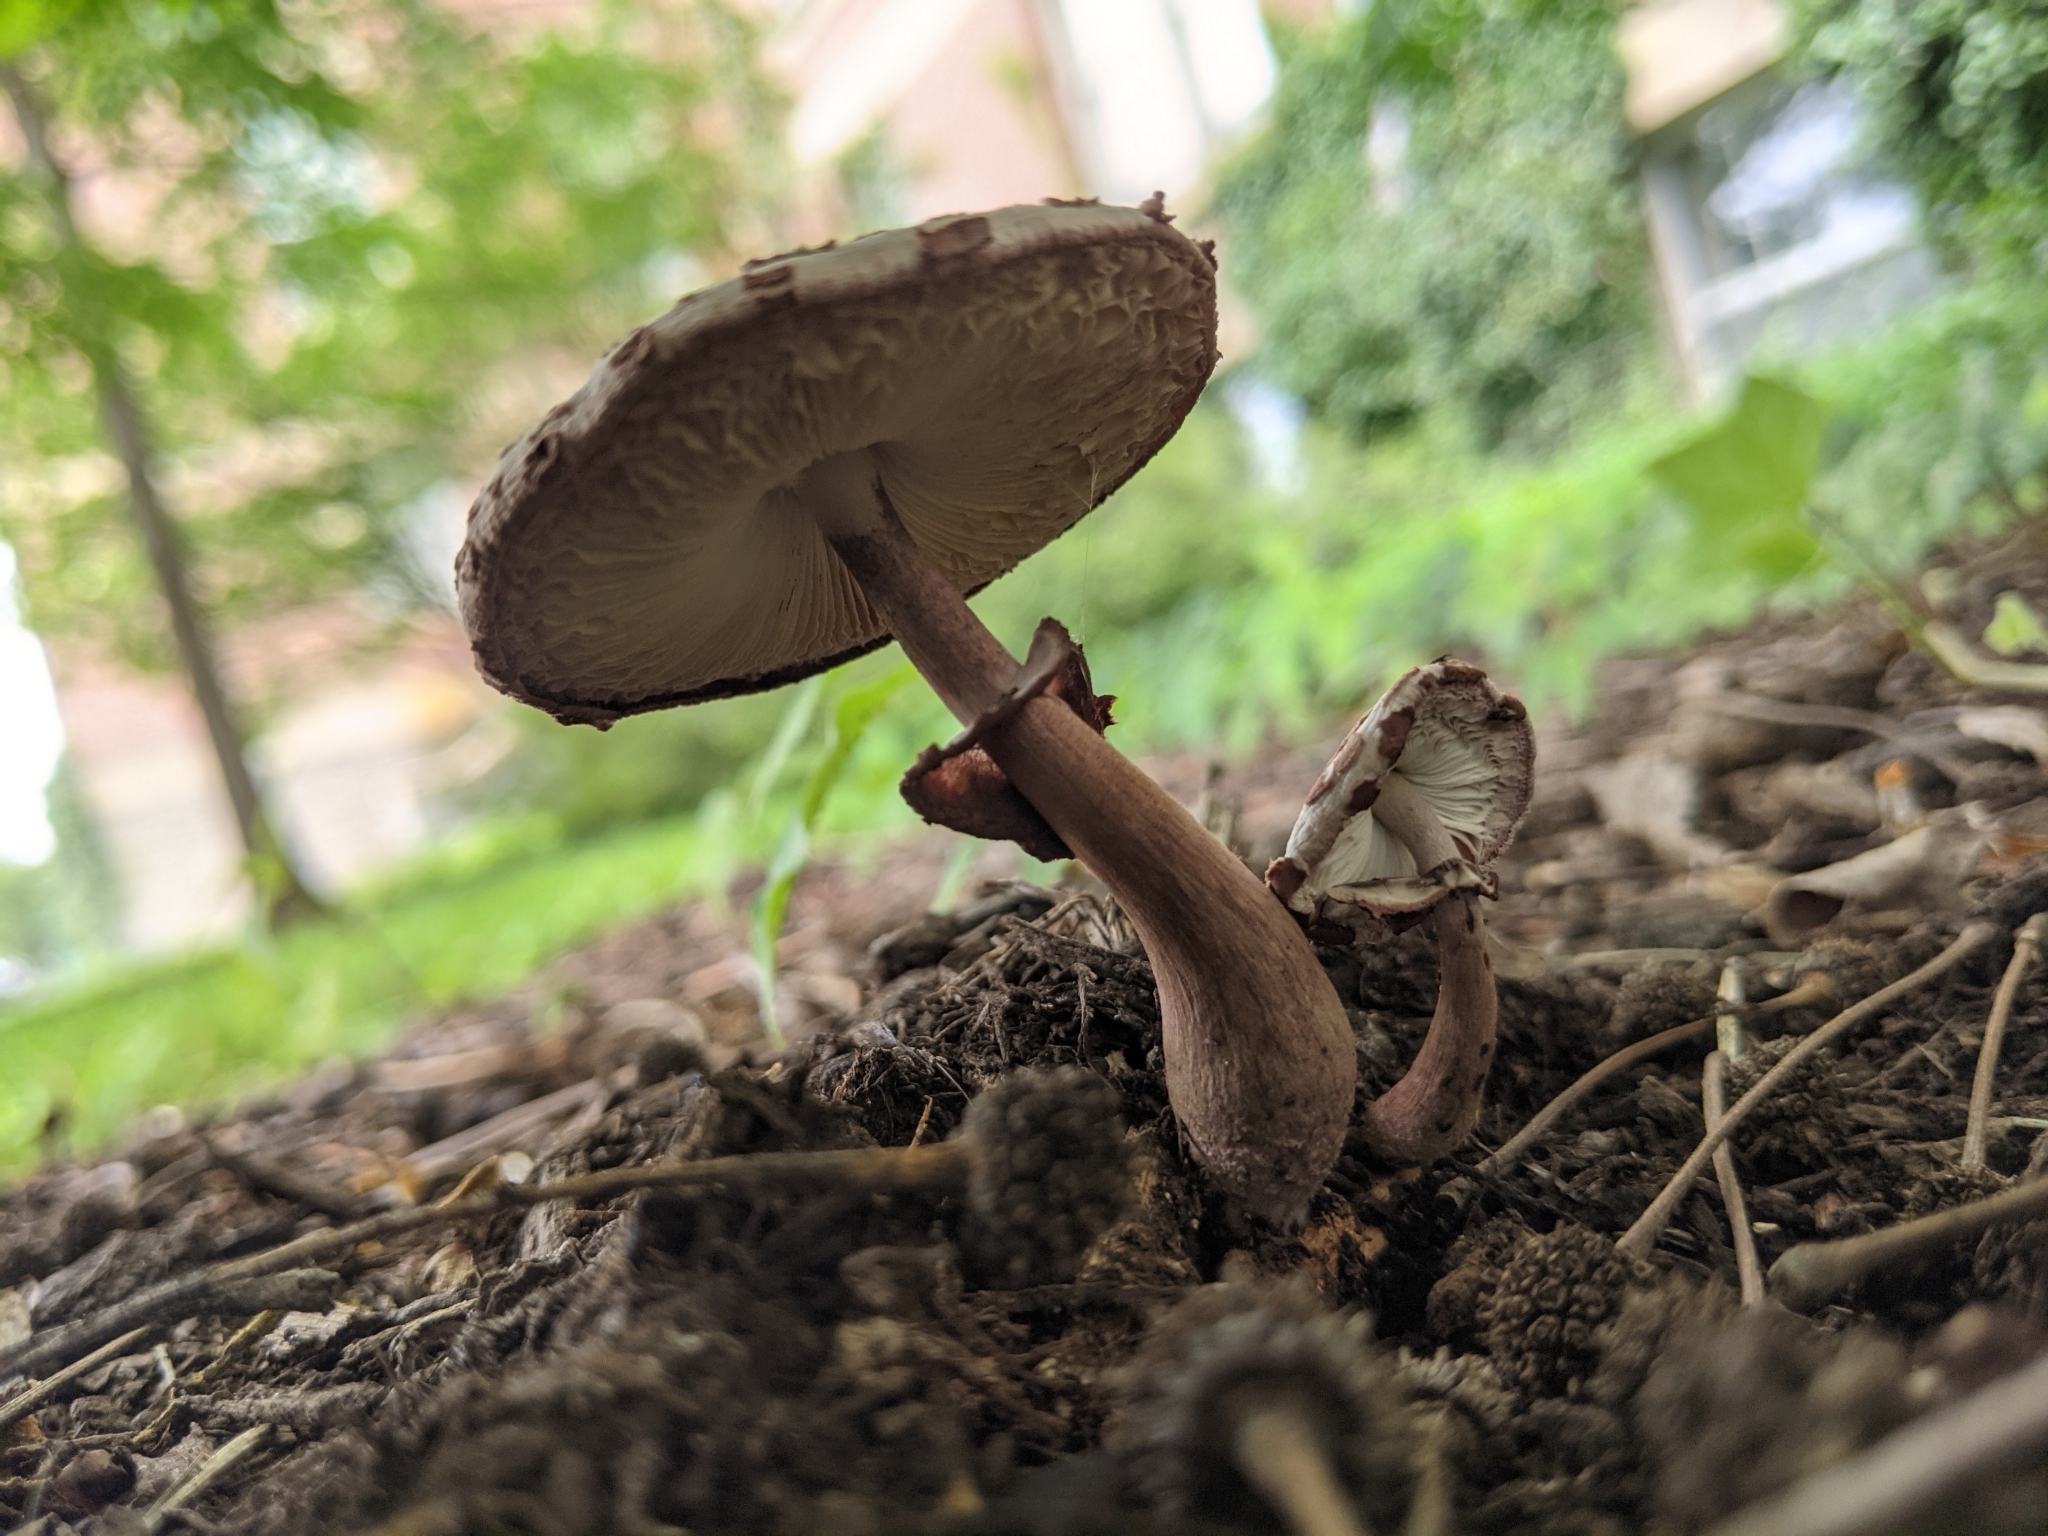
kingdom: Fungi
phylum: Basidiomycota
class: Agaricomycetes
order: Agaricales
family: Agaricaceae
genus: Leucoagaricus
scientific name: Leucoagaricus americanus
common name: Reddening lepiota
